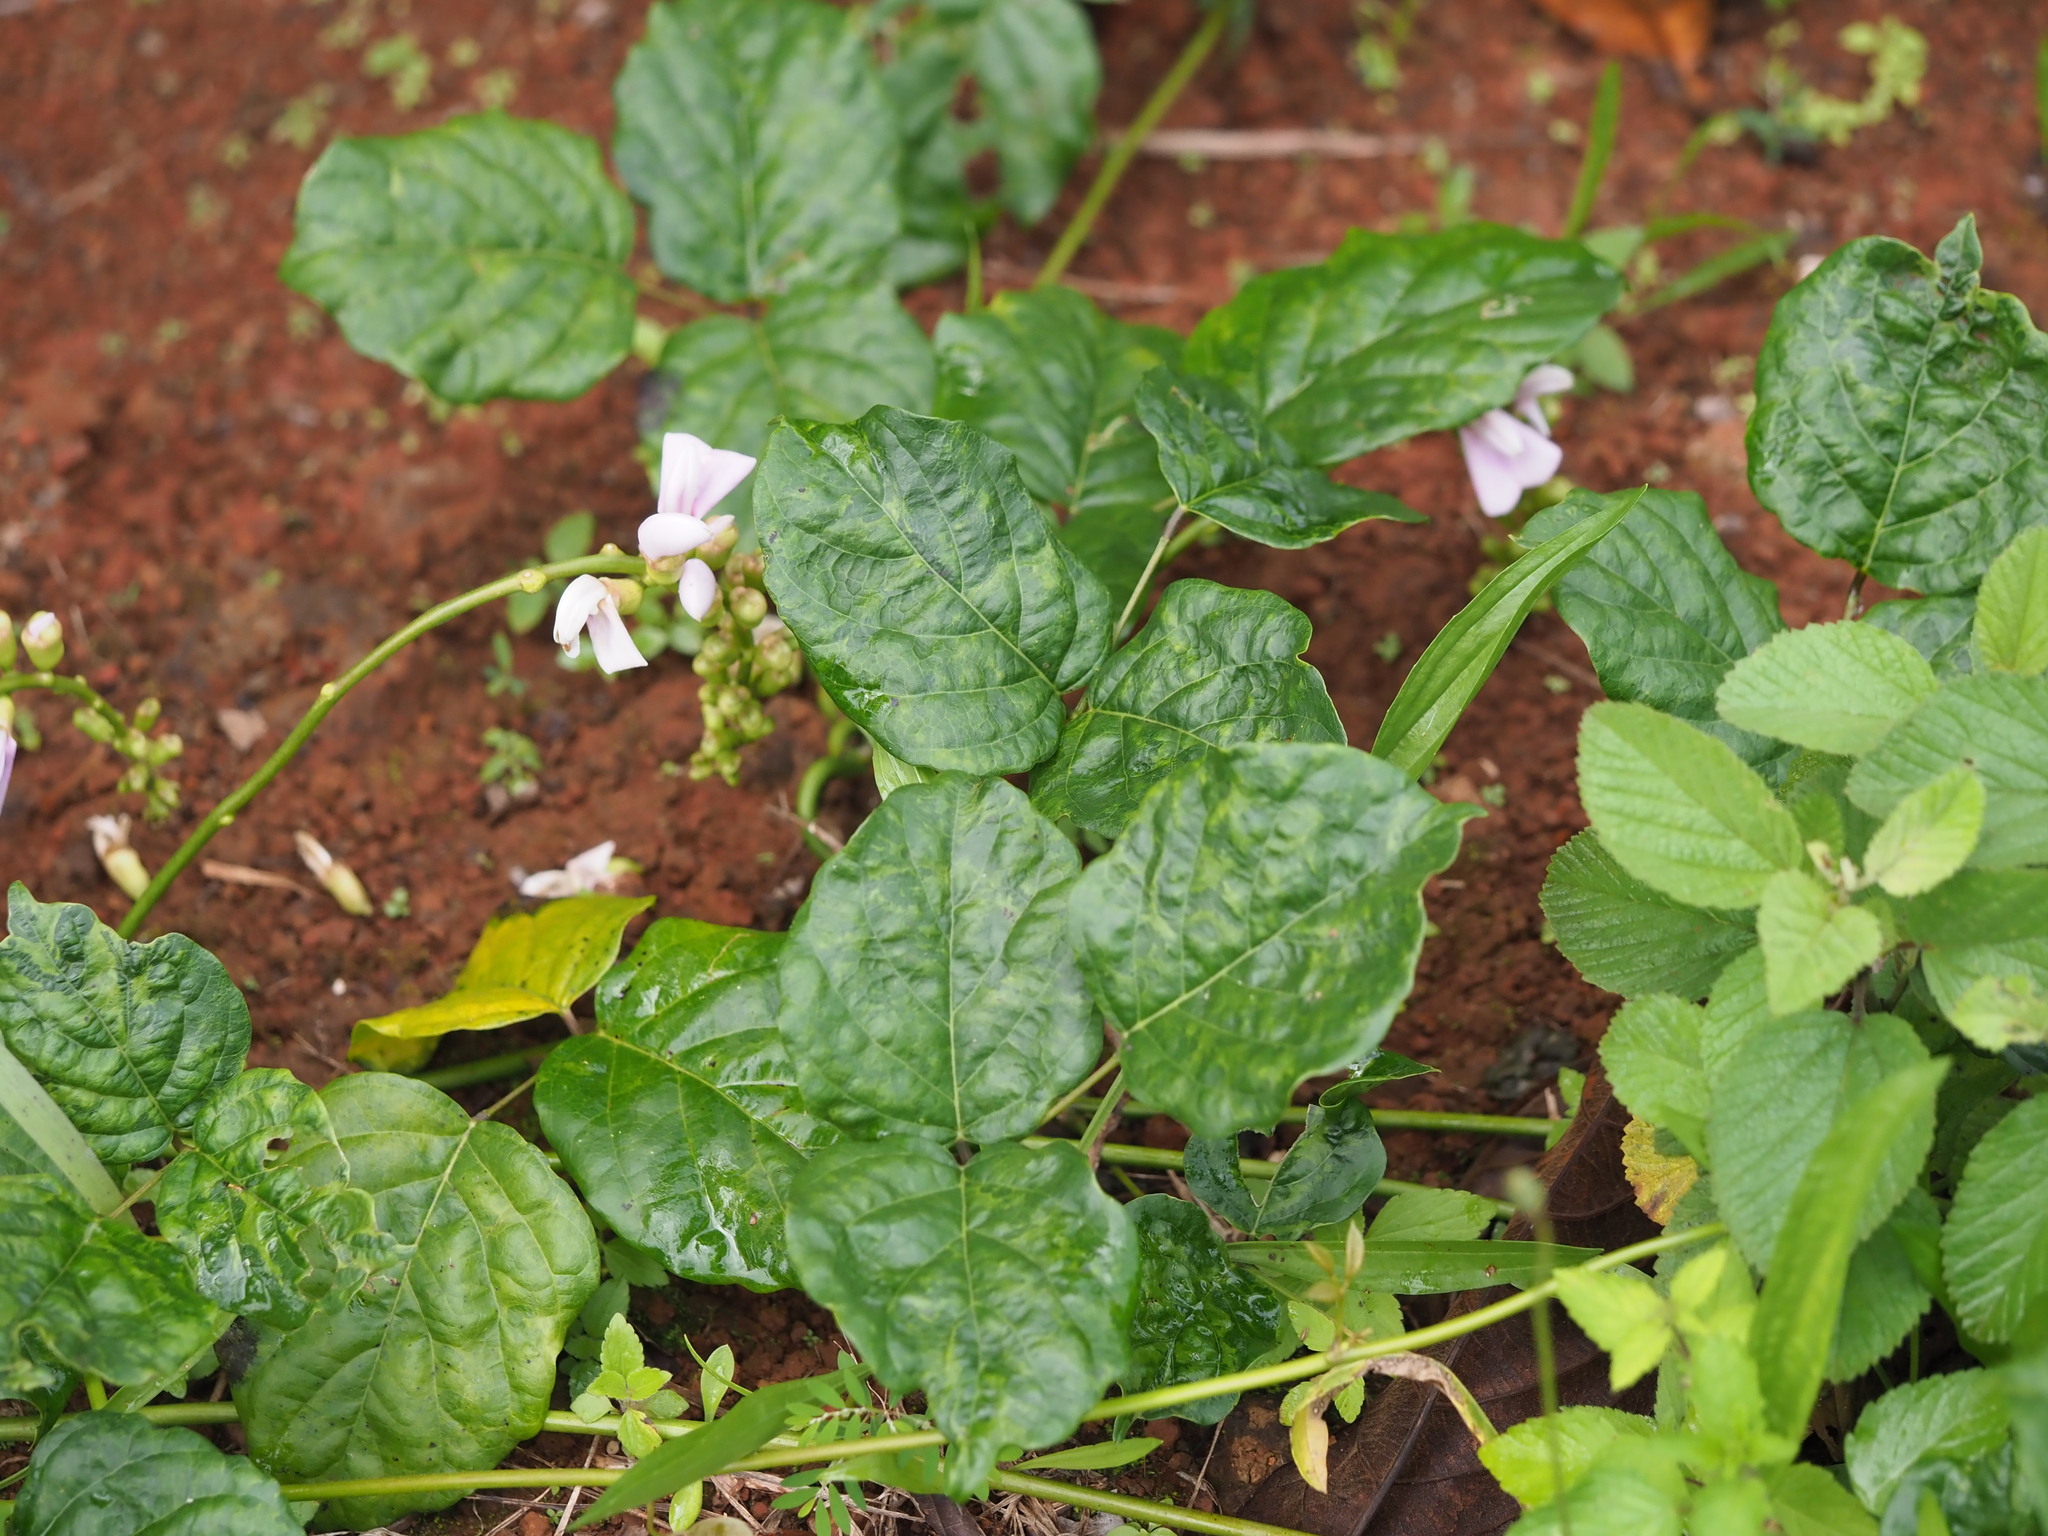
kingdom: Plantae
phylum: Tracheophyta
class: Magnoliopsida
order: Fabales
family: Fabaceae
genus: Canavalia
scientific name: Canavalia cathartica
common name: Maunaloa
